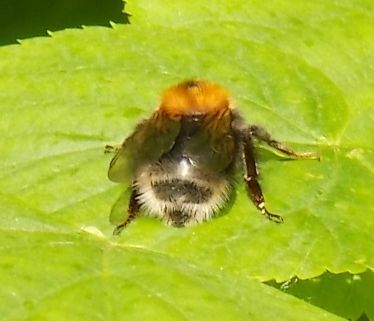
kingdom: Animalia
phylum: Arthropoda
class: Insecta
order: Hymenoptera
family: Apidae
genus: Bombus
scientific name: Bombus hypnorum
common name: New garden bumblebee
